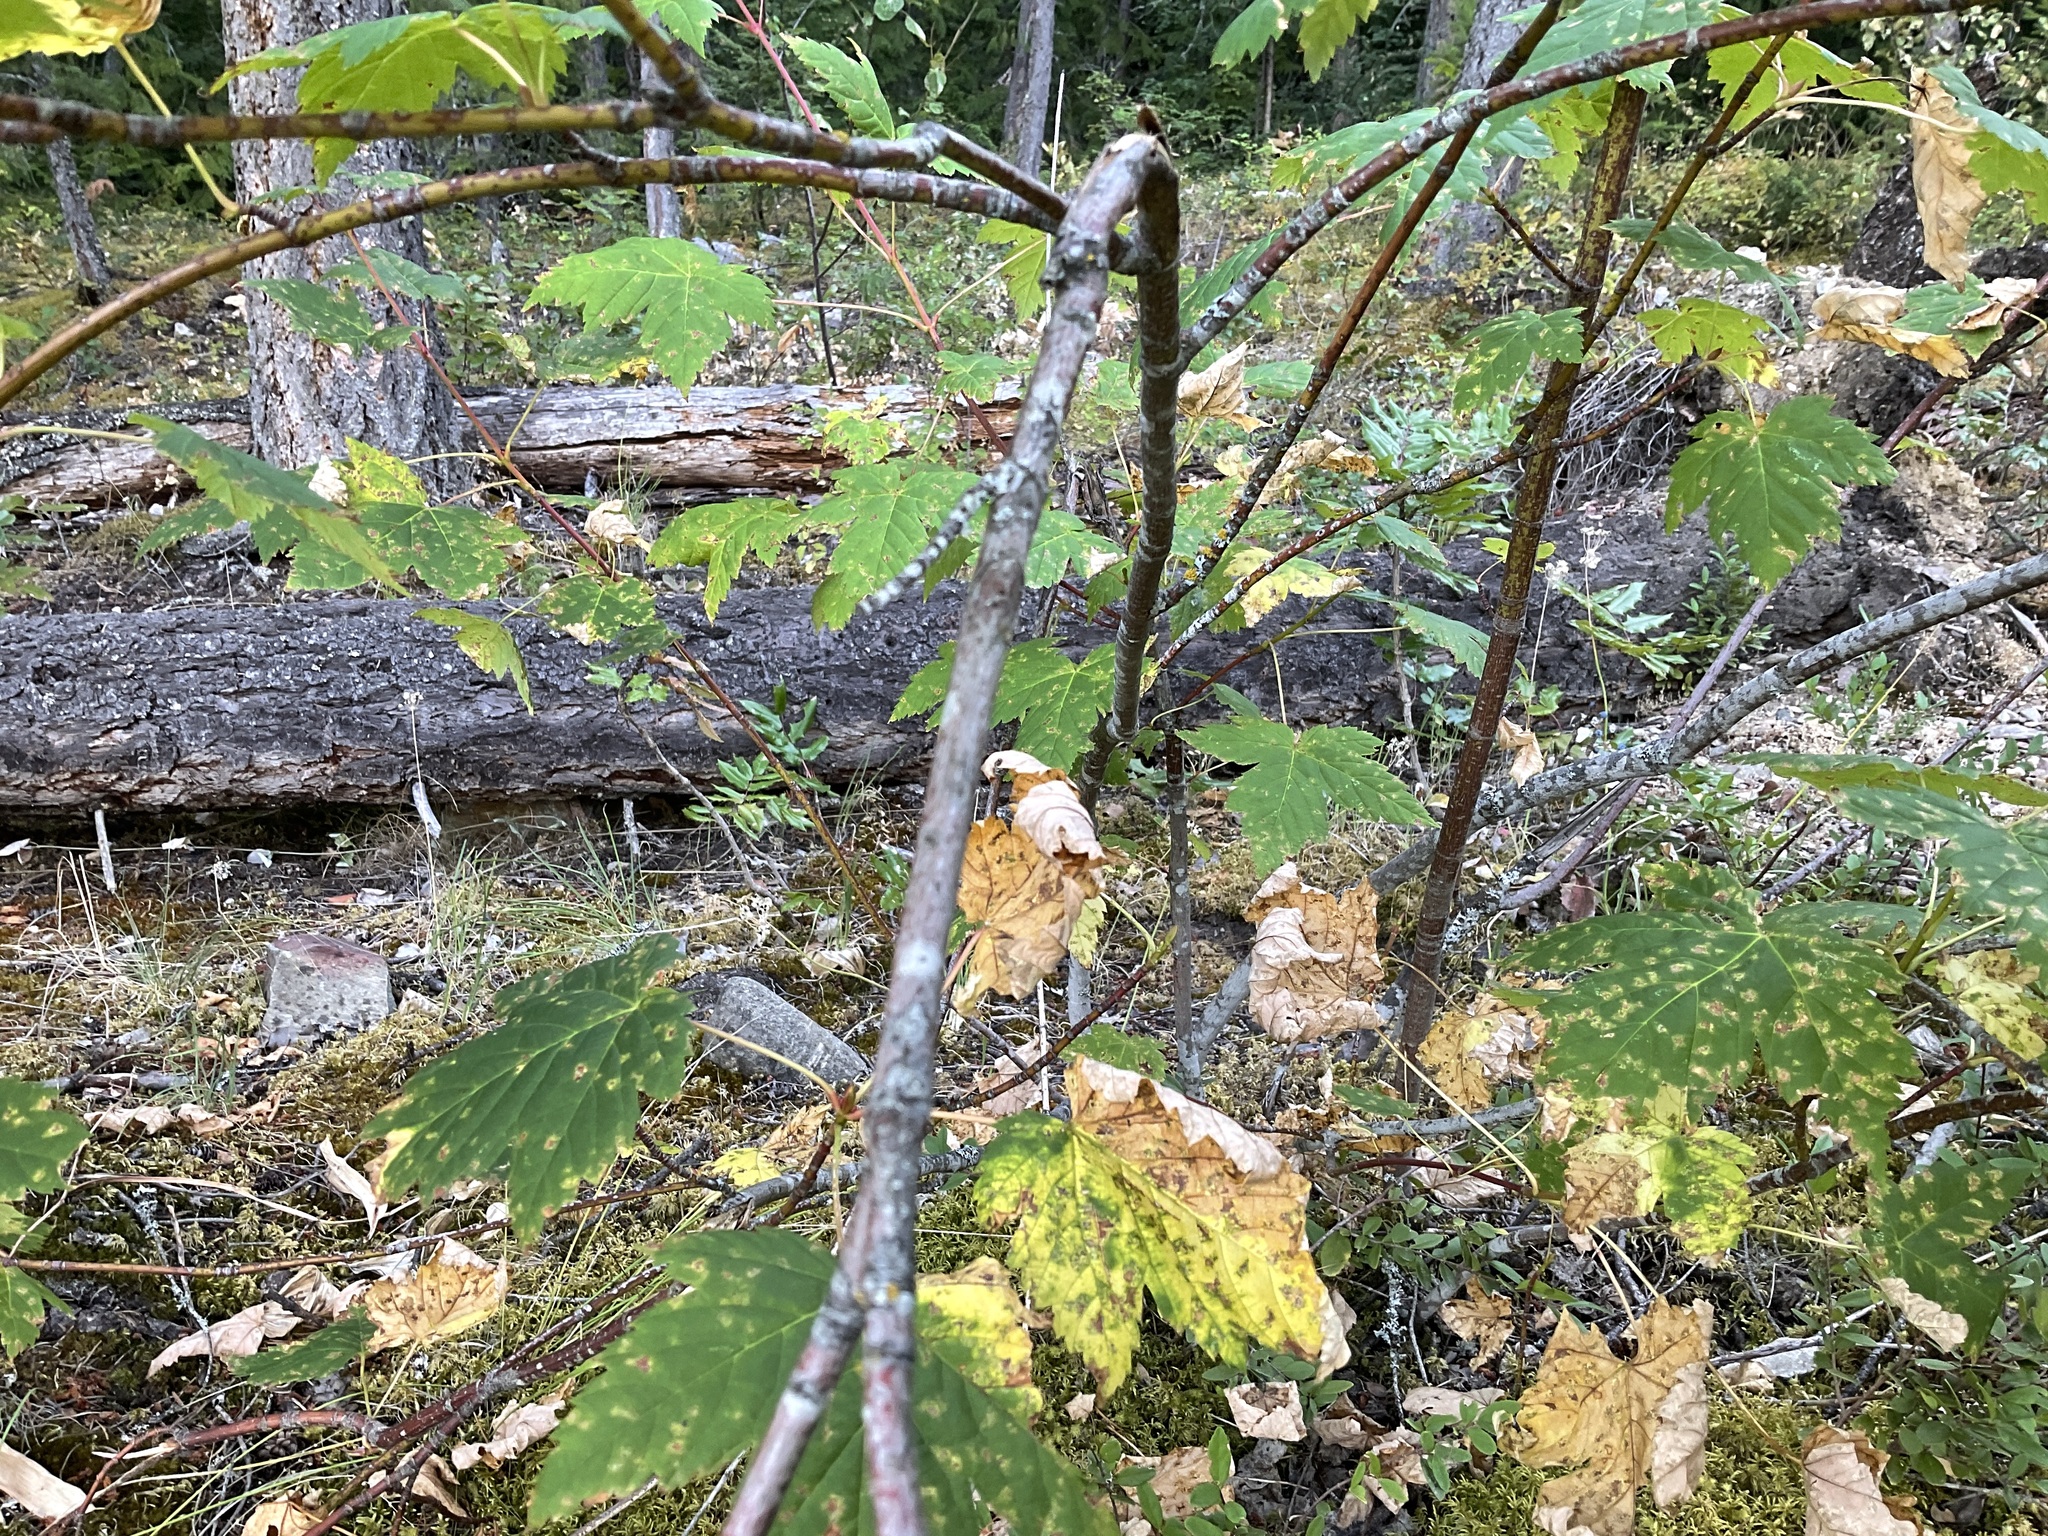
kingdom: Plantae
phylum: Tracheophyta
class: Magnoliopsida
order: Sapindales
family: Sapindaceae
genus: Acer
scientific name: Acer glabrum
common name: Rocky mountain maple
